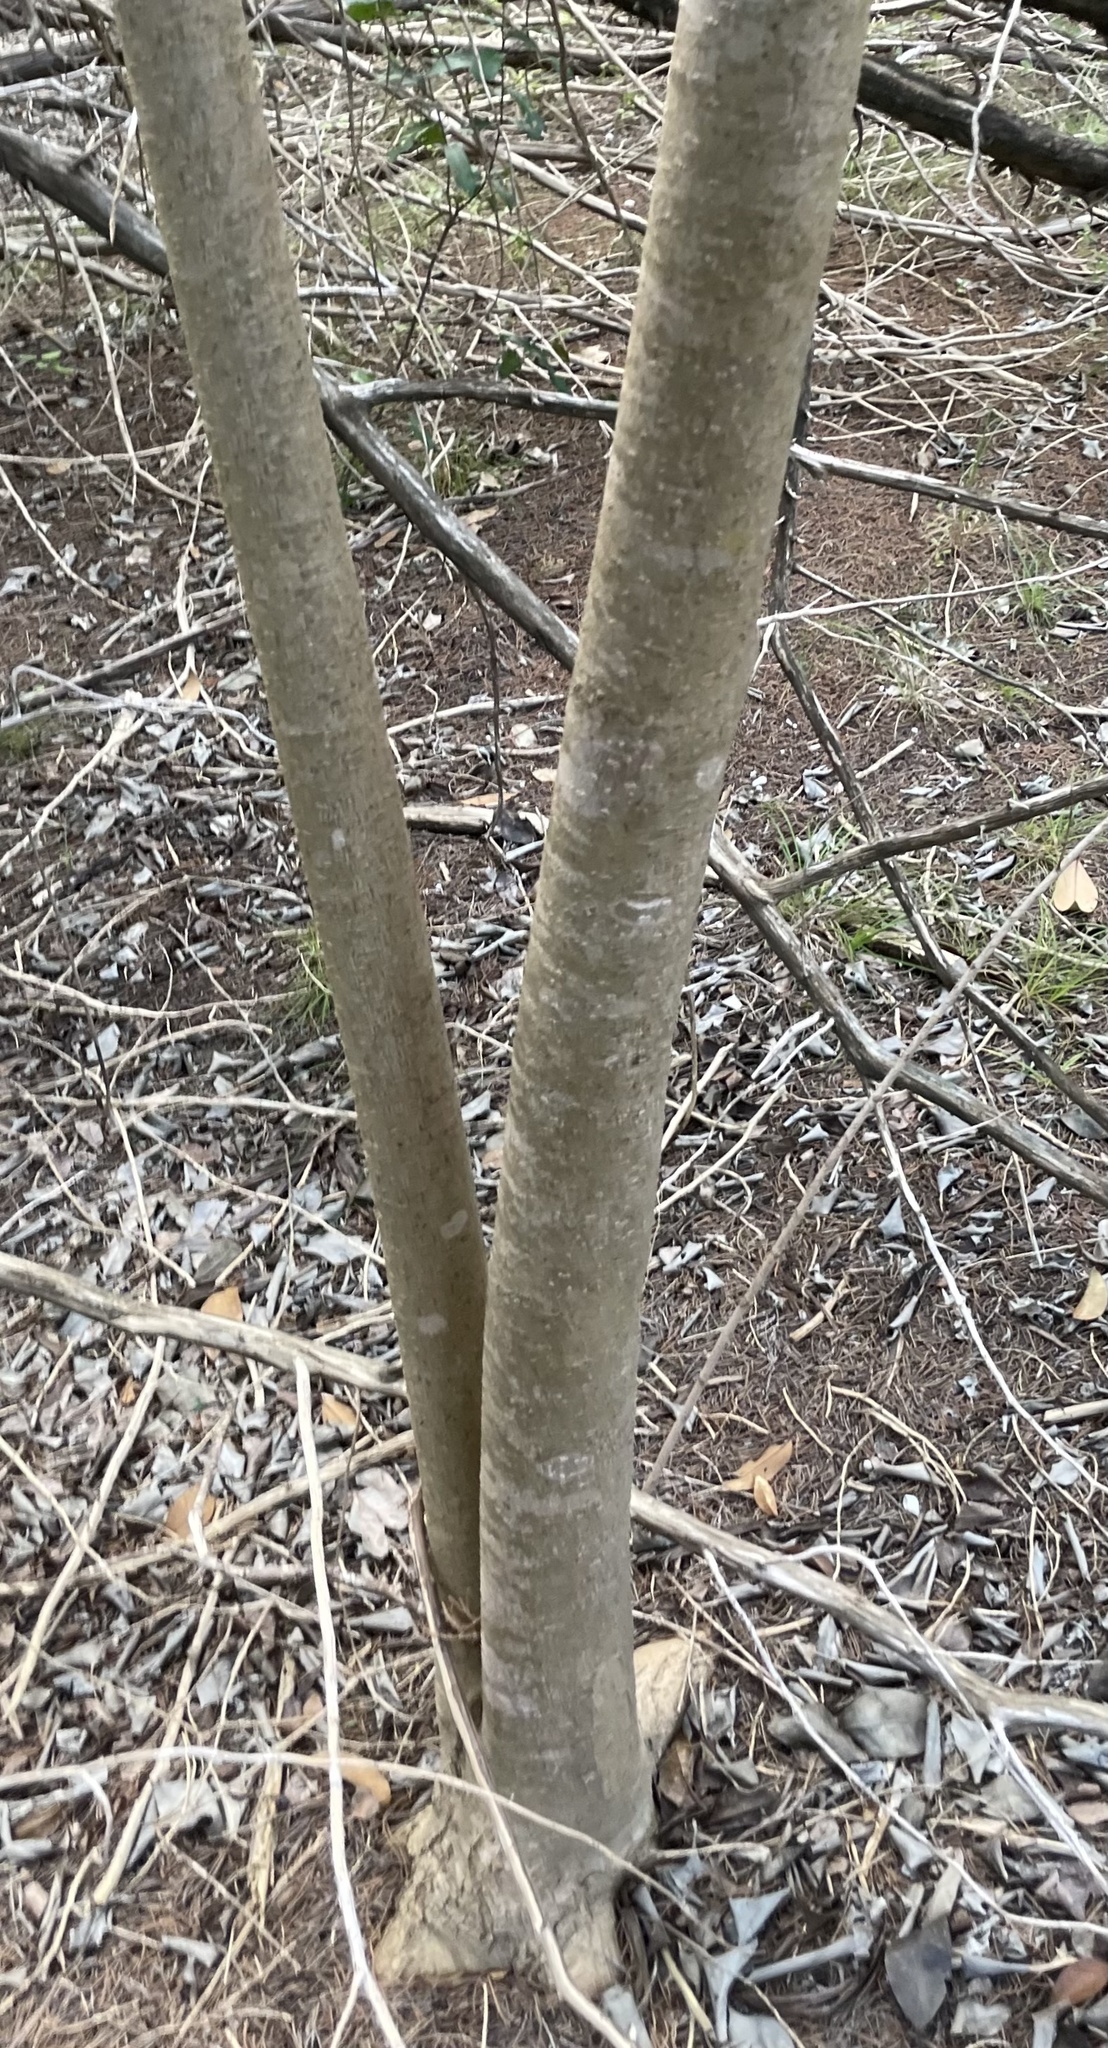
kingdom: Plantae
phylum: Tracheophyta
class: Magnoliopsida
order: Lamiales
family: Oleaceae
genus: Ligustrum
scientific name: Ligustrum lucidum
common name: Glossy privet
